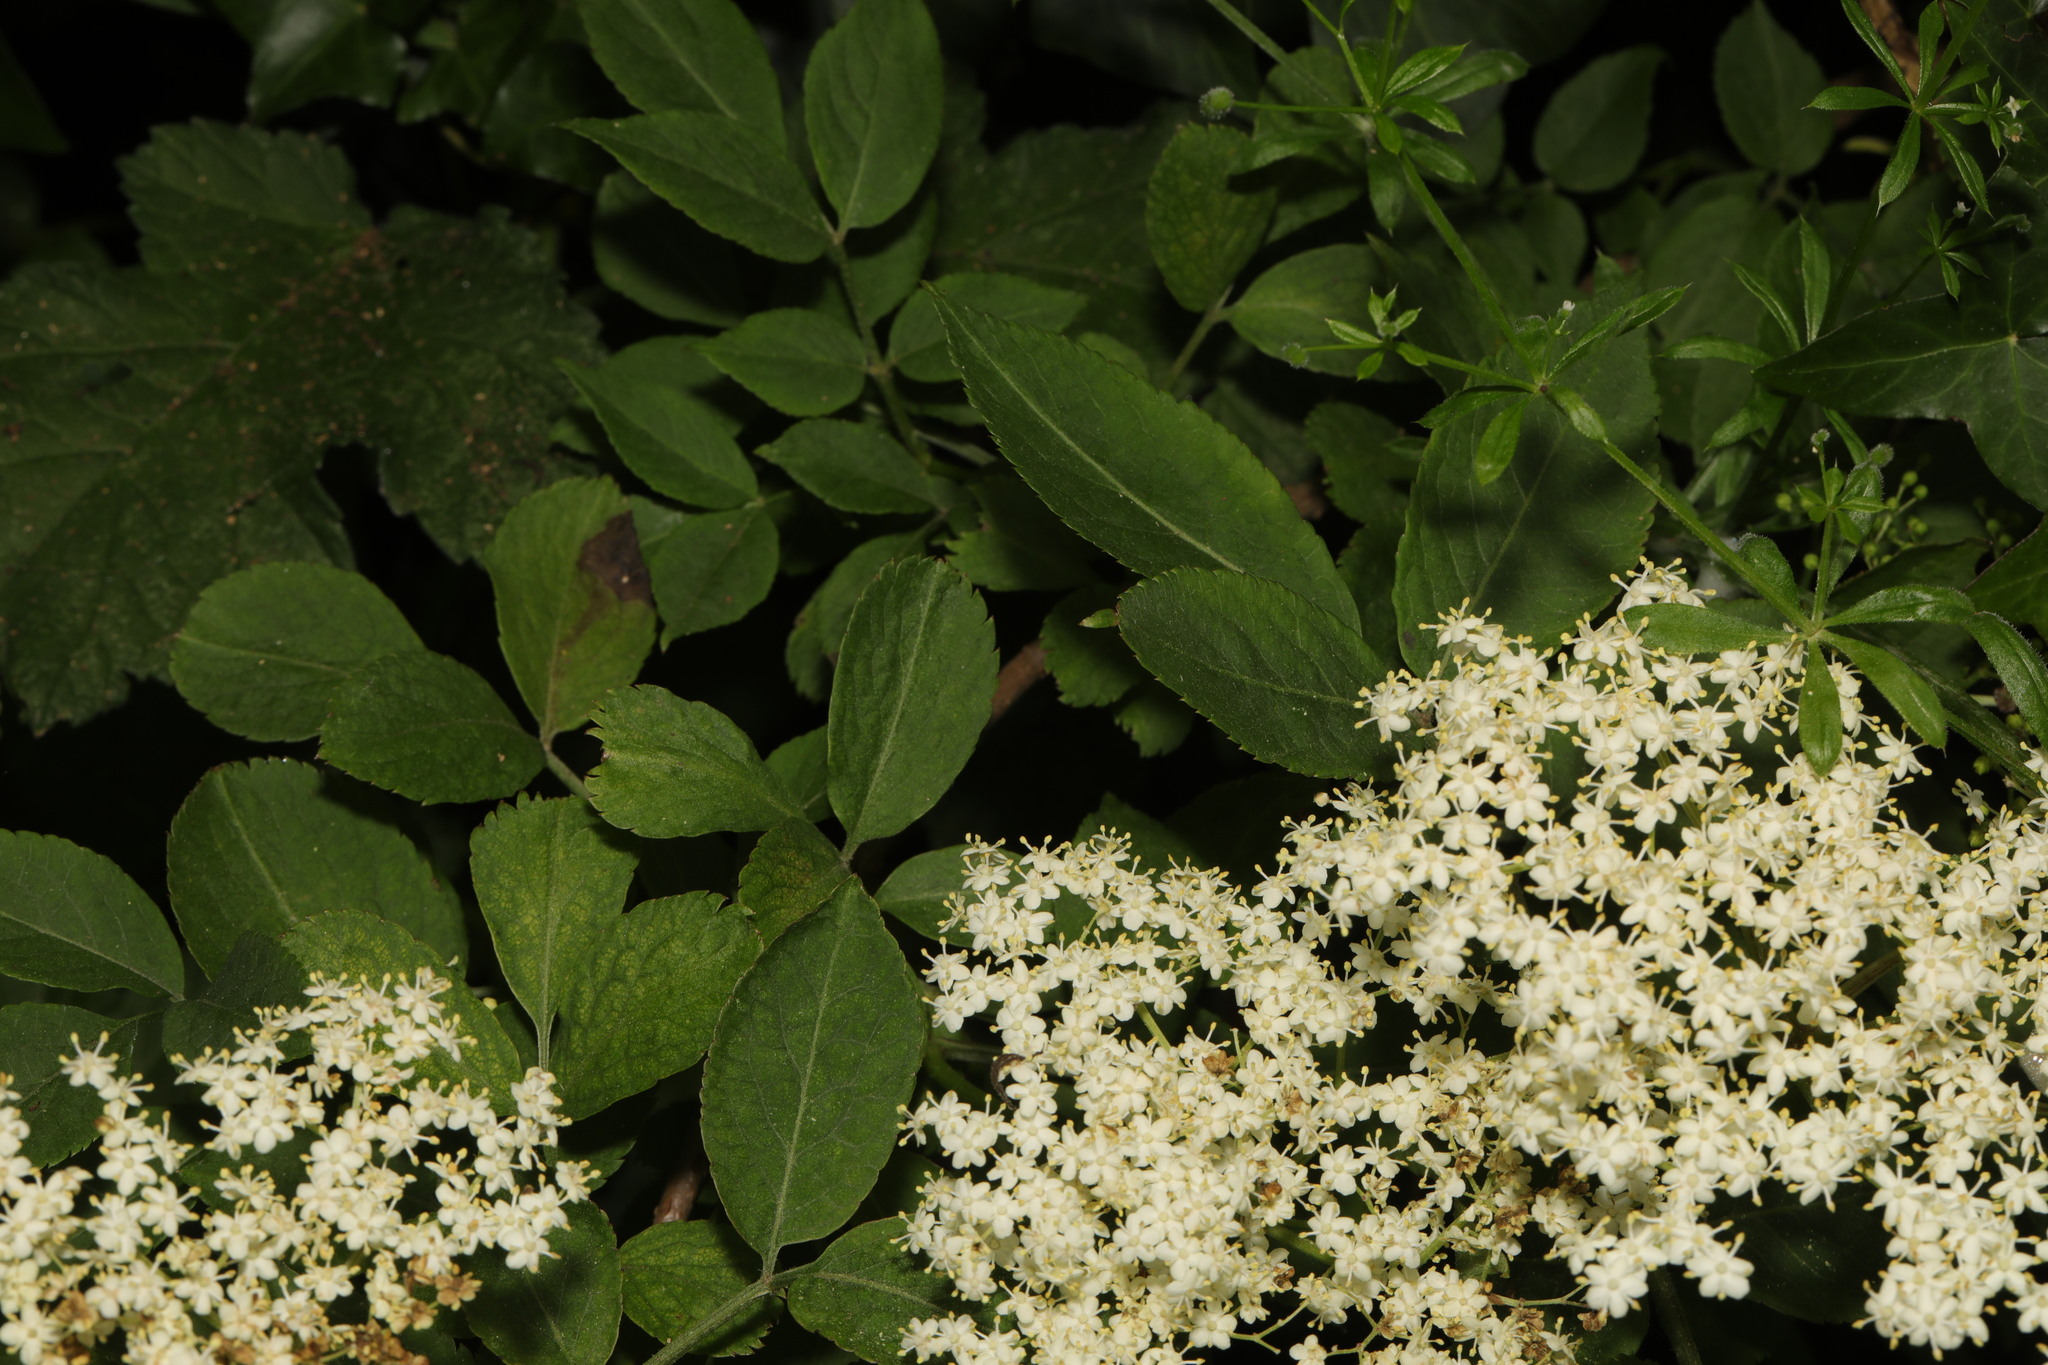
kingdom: Plantae
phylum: Tracheophyta
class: Magnoliopsida
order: Dipsacales
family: Viburnaceae
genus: Sambucus
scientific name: Sambucus nigra
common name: Elder
